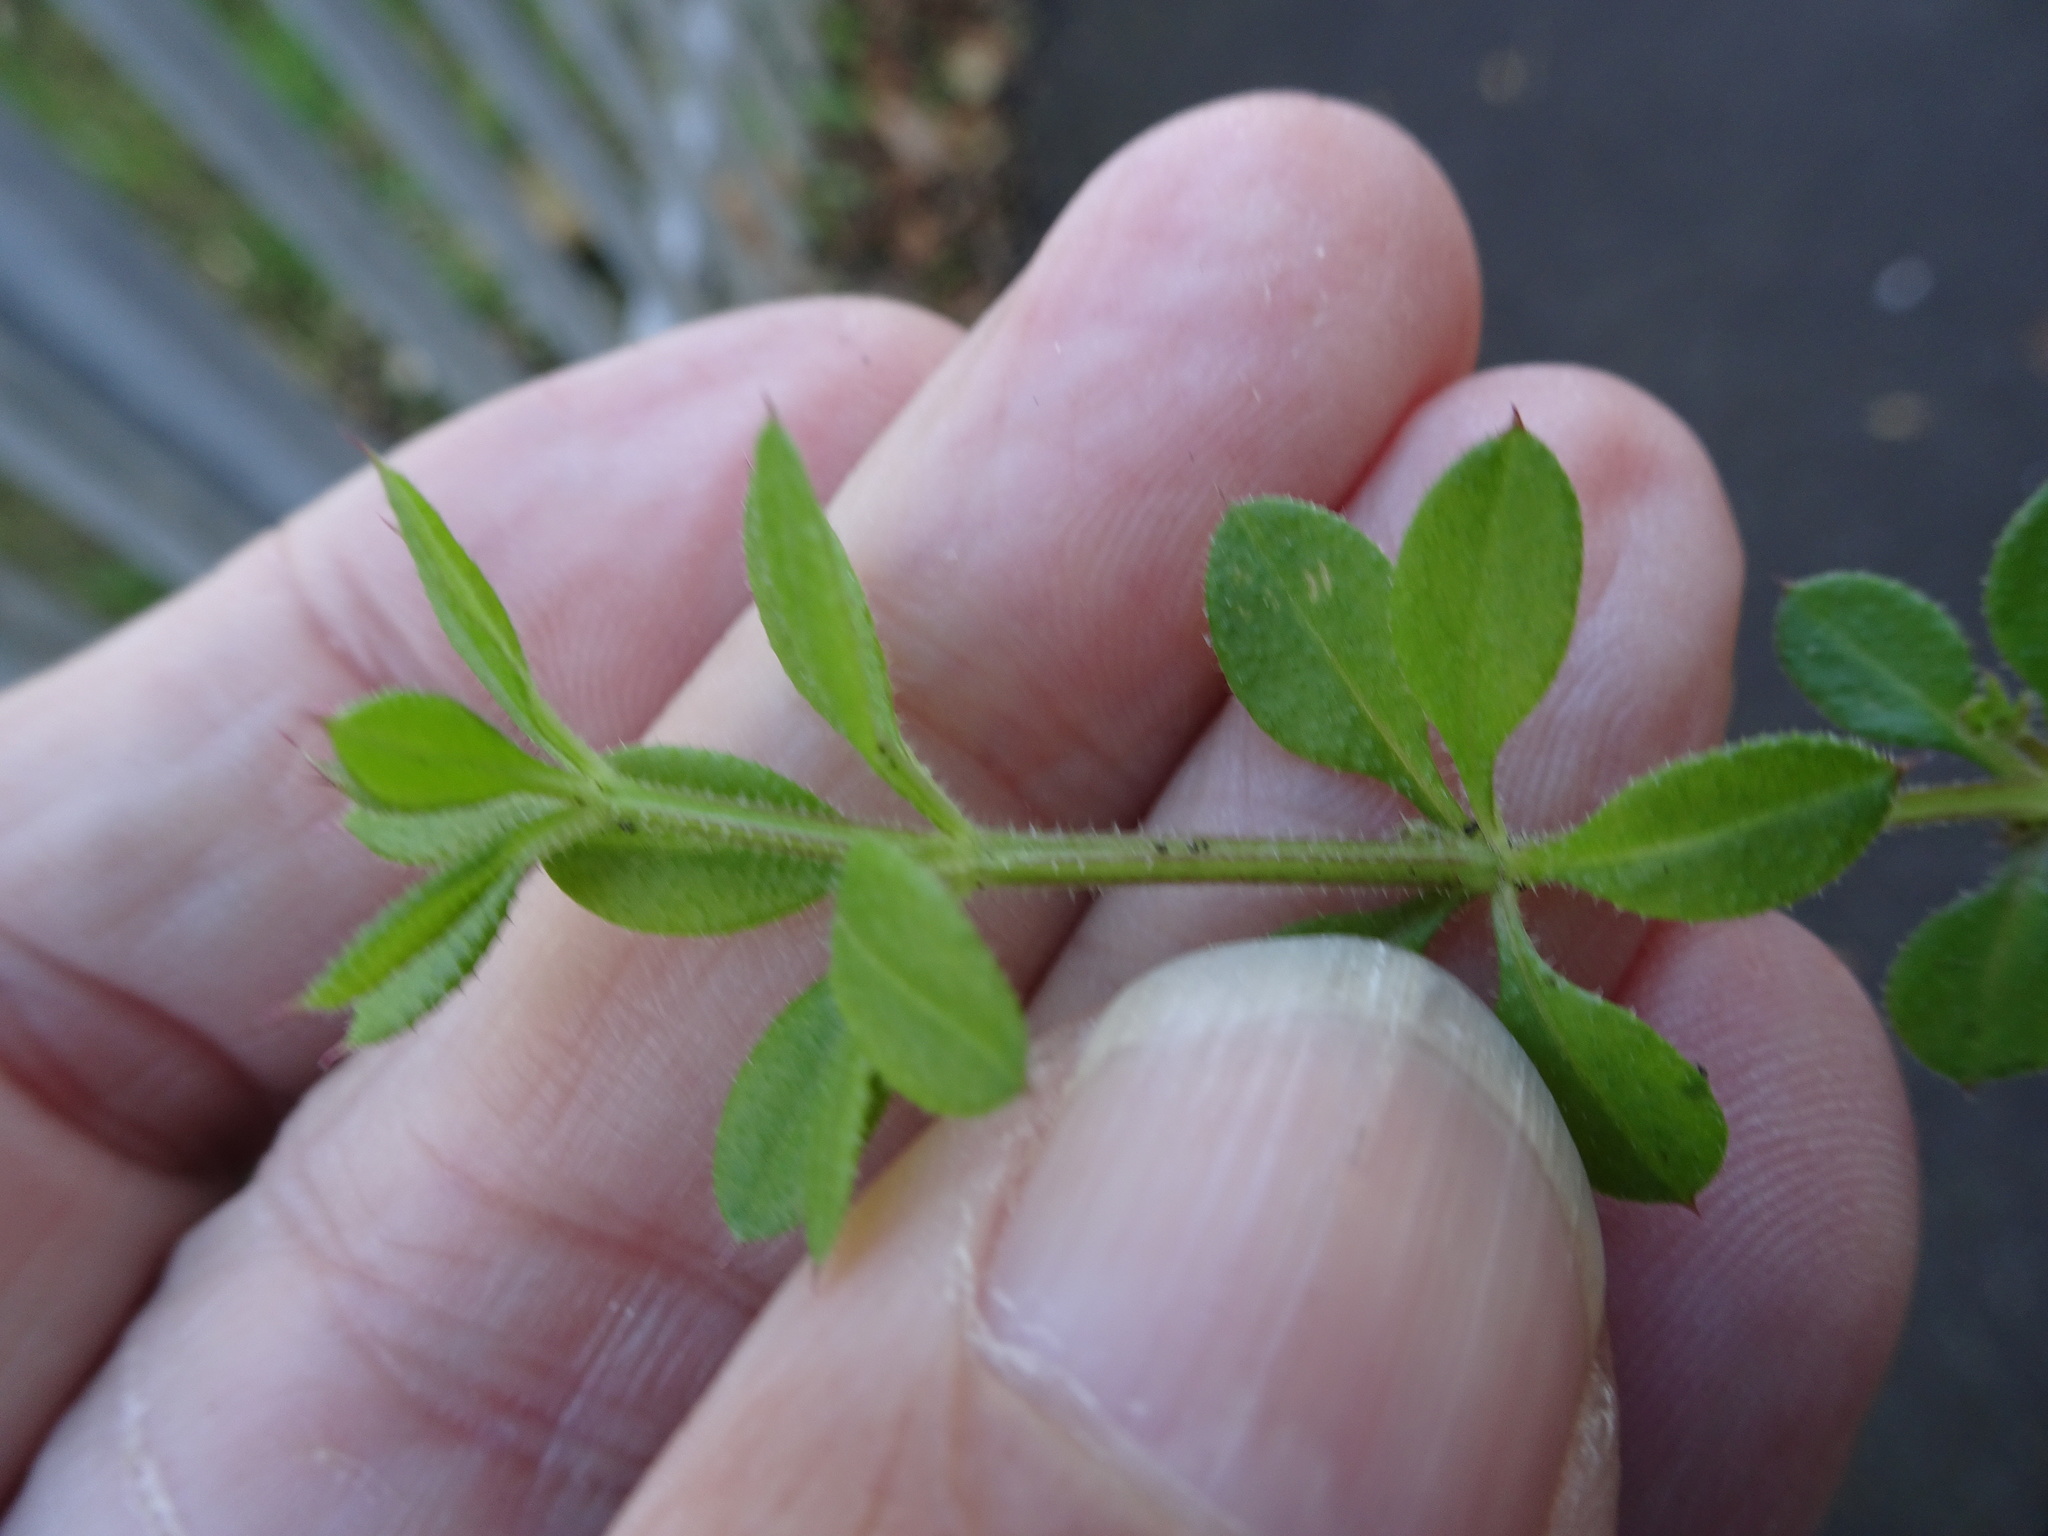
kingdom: Plantae
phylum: Tracheophyta
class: Magnoliopsida
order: Gentianales
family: Rubiaceae
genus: Galium
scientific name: Galium aparine
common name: Cleavers
